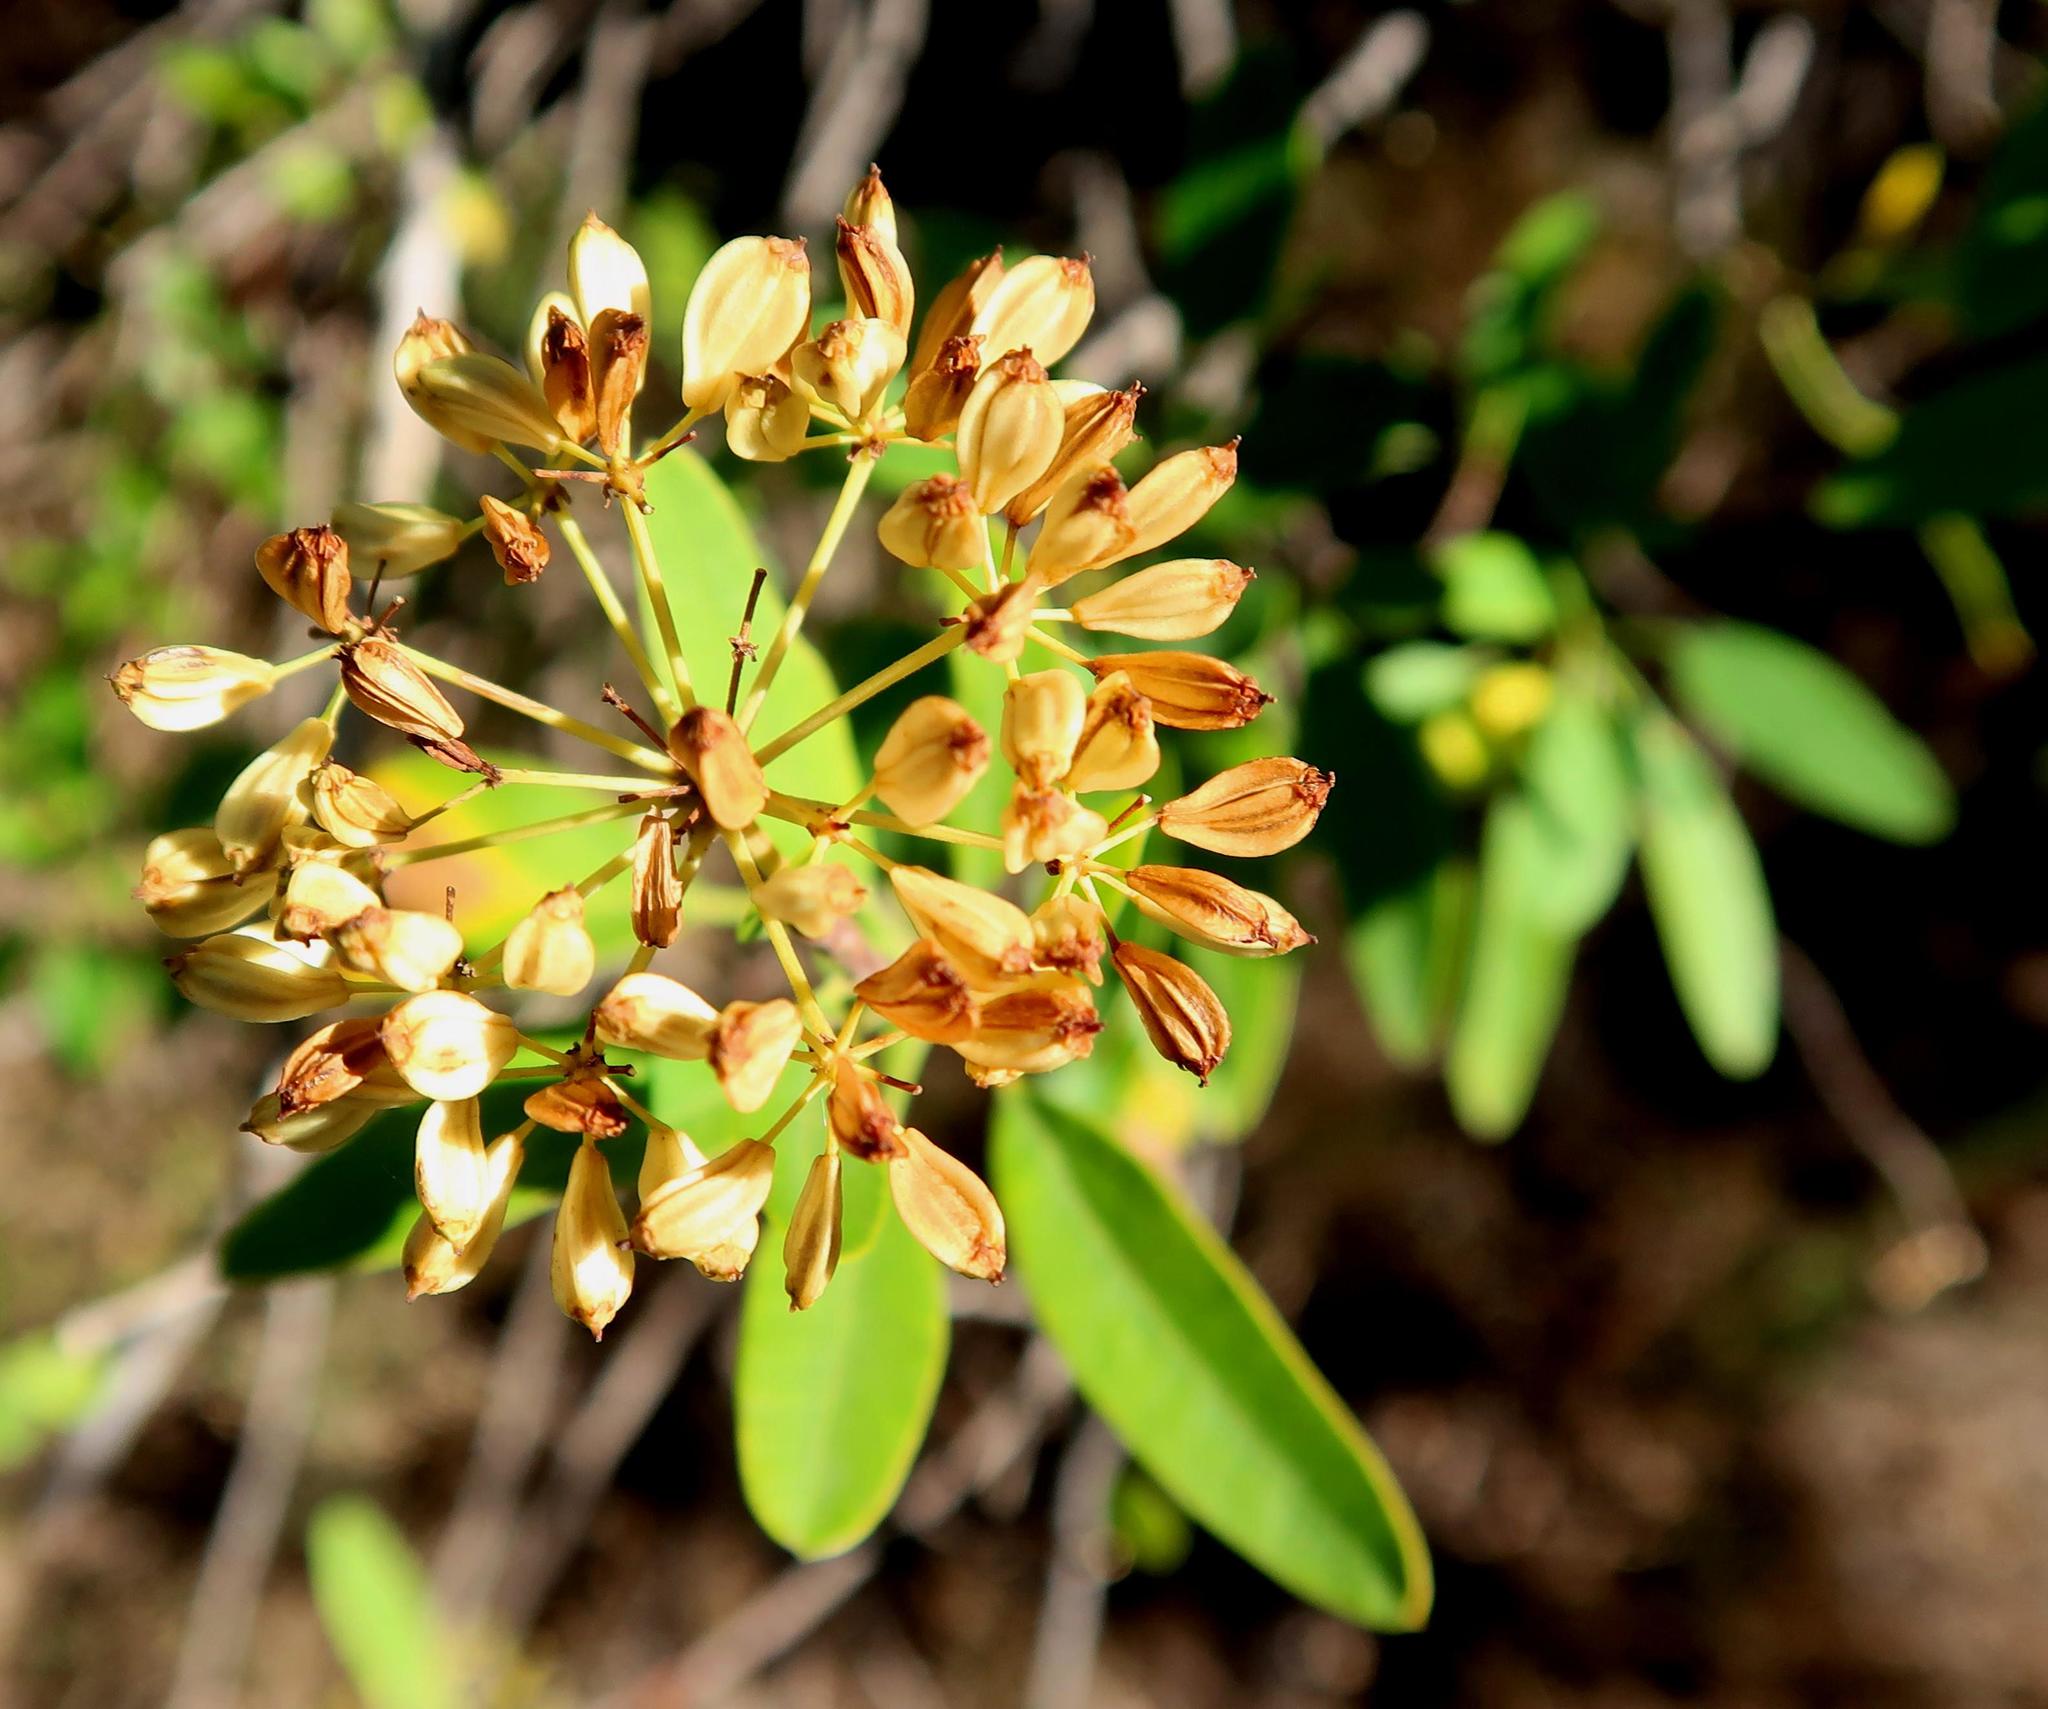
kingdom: Plantae
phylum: Tracheophyta
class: Magnoliopsida
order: Apiales
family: Apiaceae
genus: Heteromorpha
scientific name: Heteromorpha arborescens
